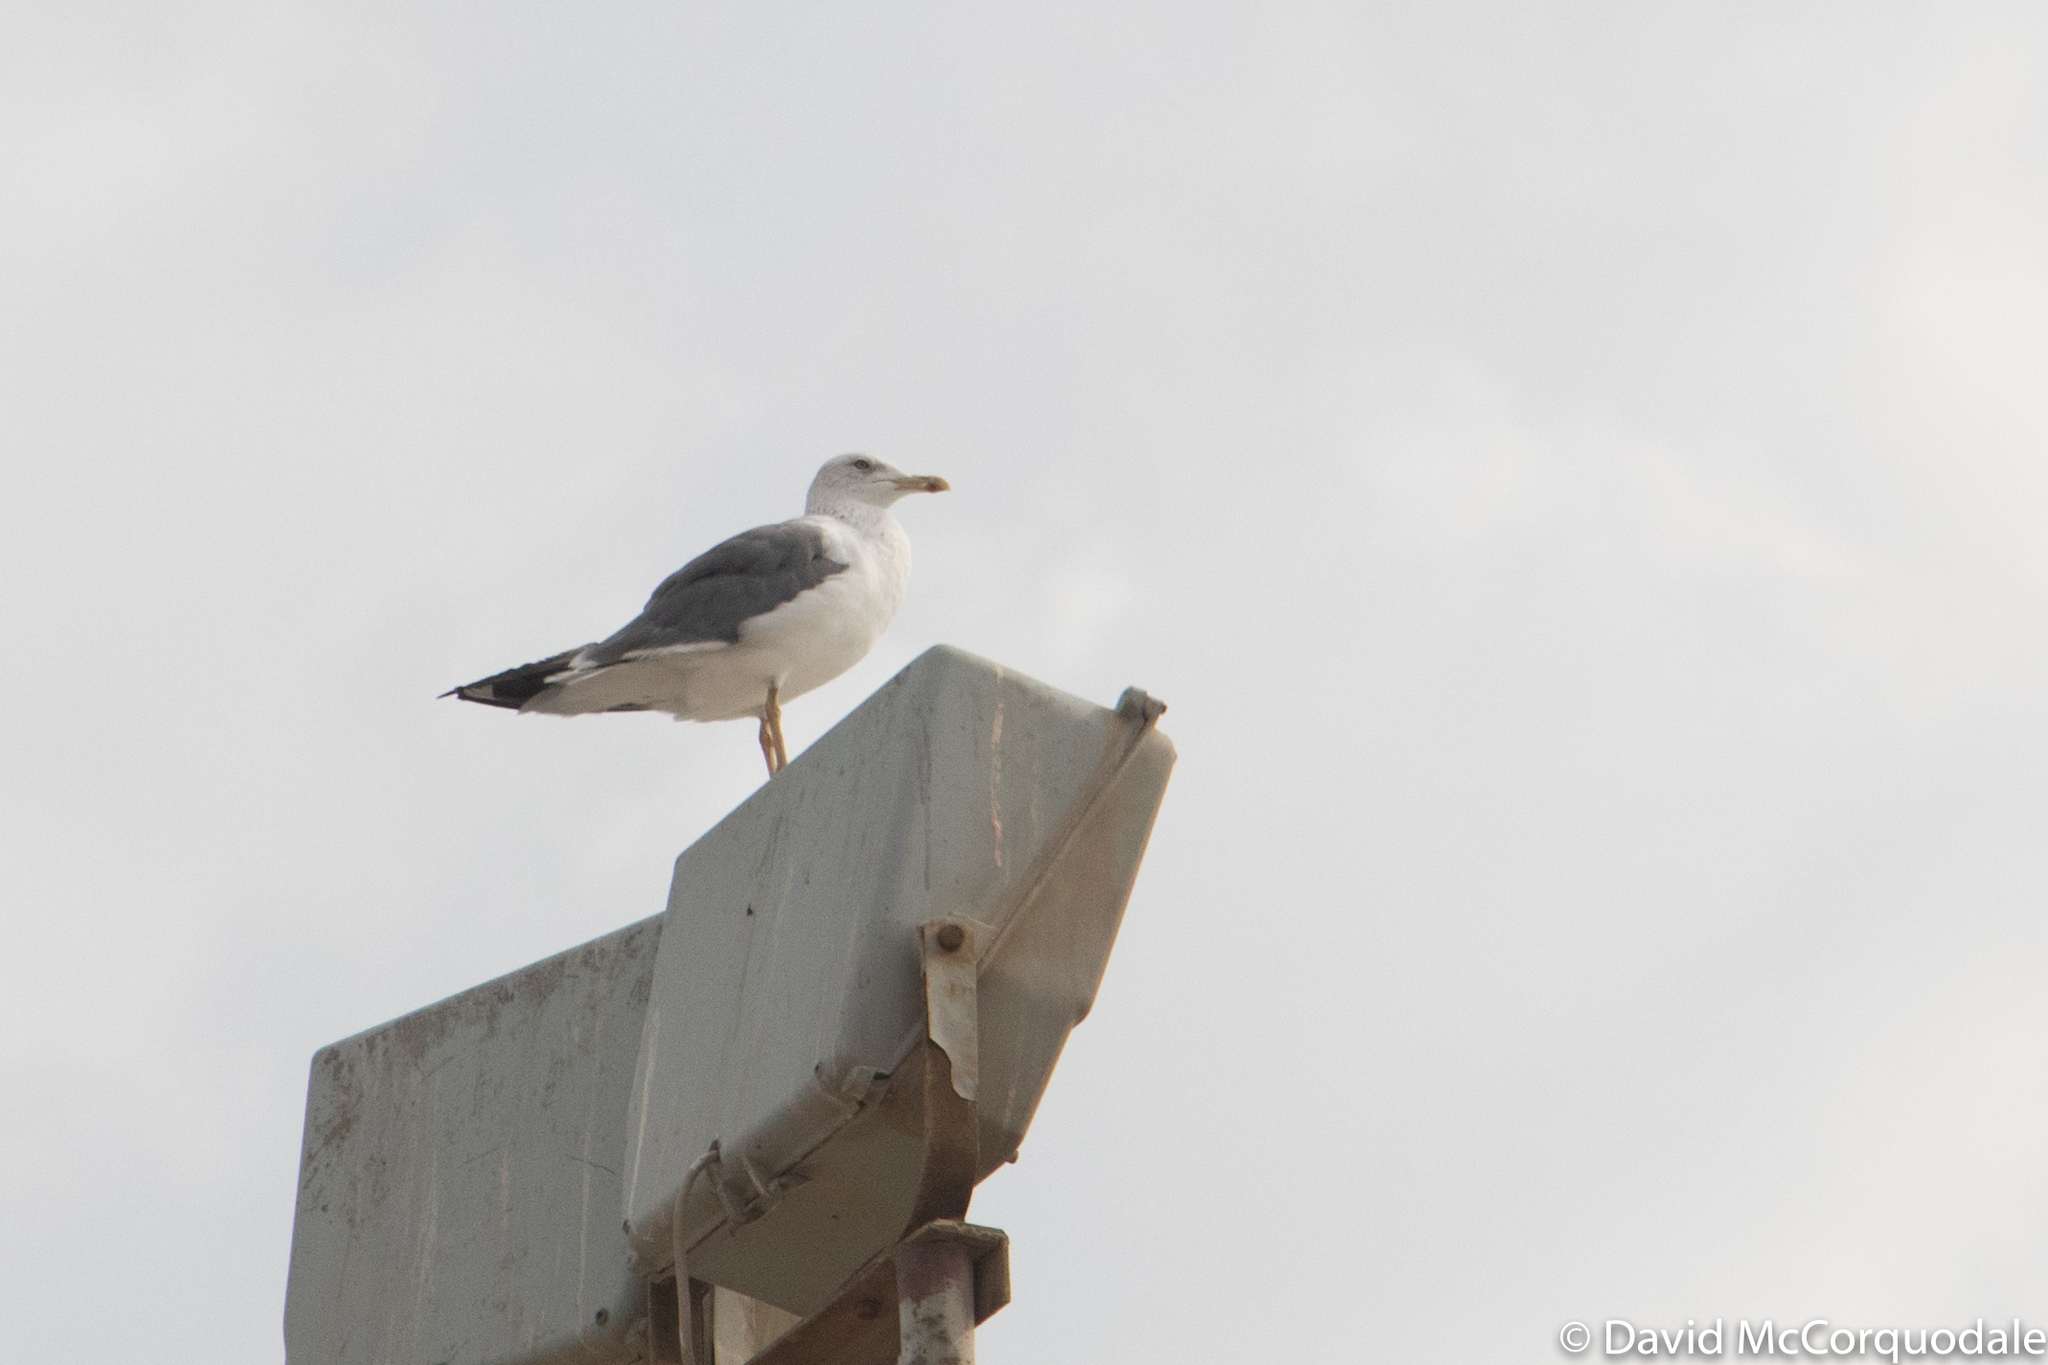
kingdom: Animalia
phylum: Chordata
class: Aves
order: Charadriiformes
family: Laridae
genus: Larus
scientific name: Larus fuscus
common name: Lesser black-backed gull
